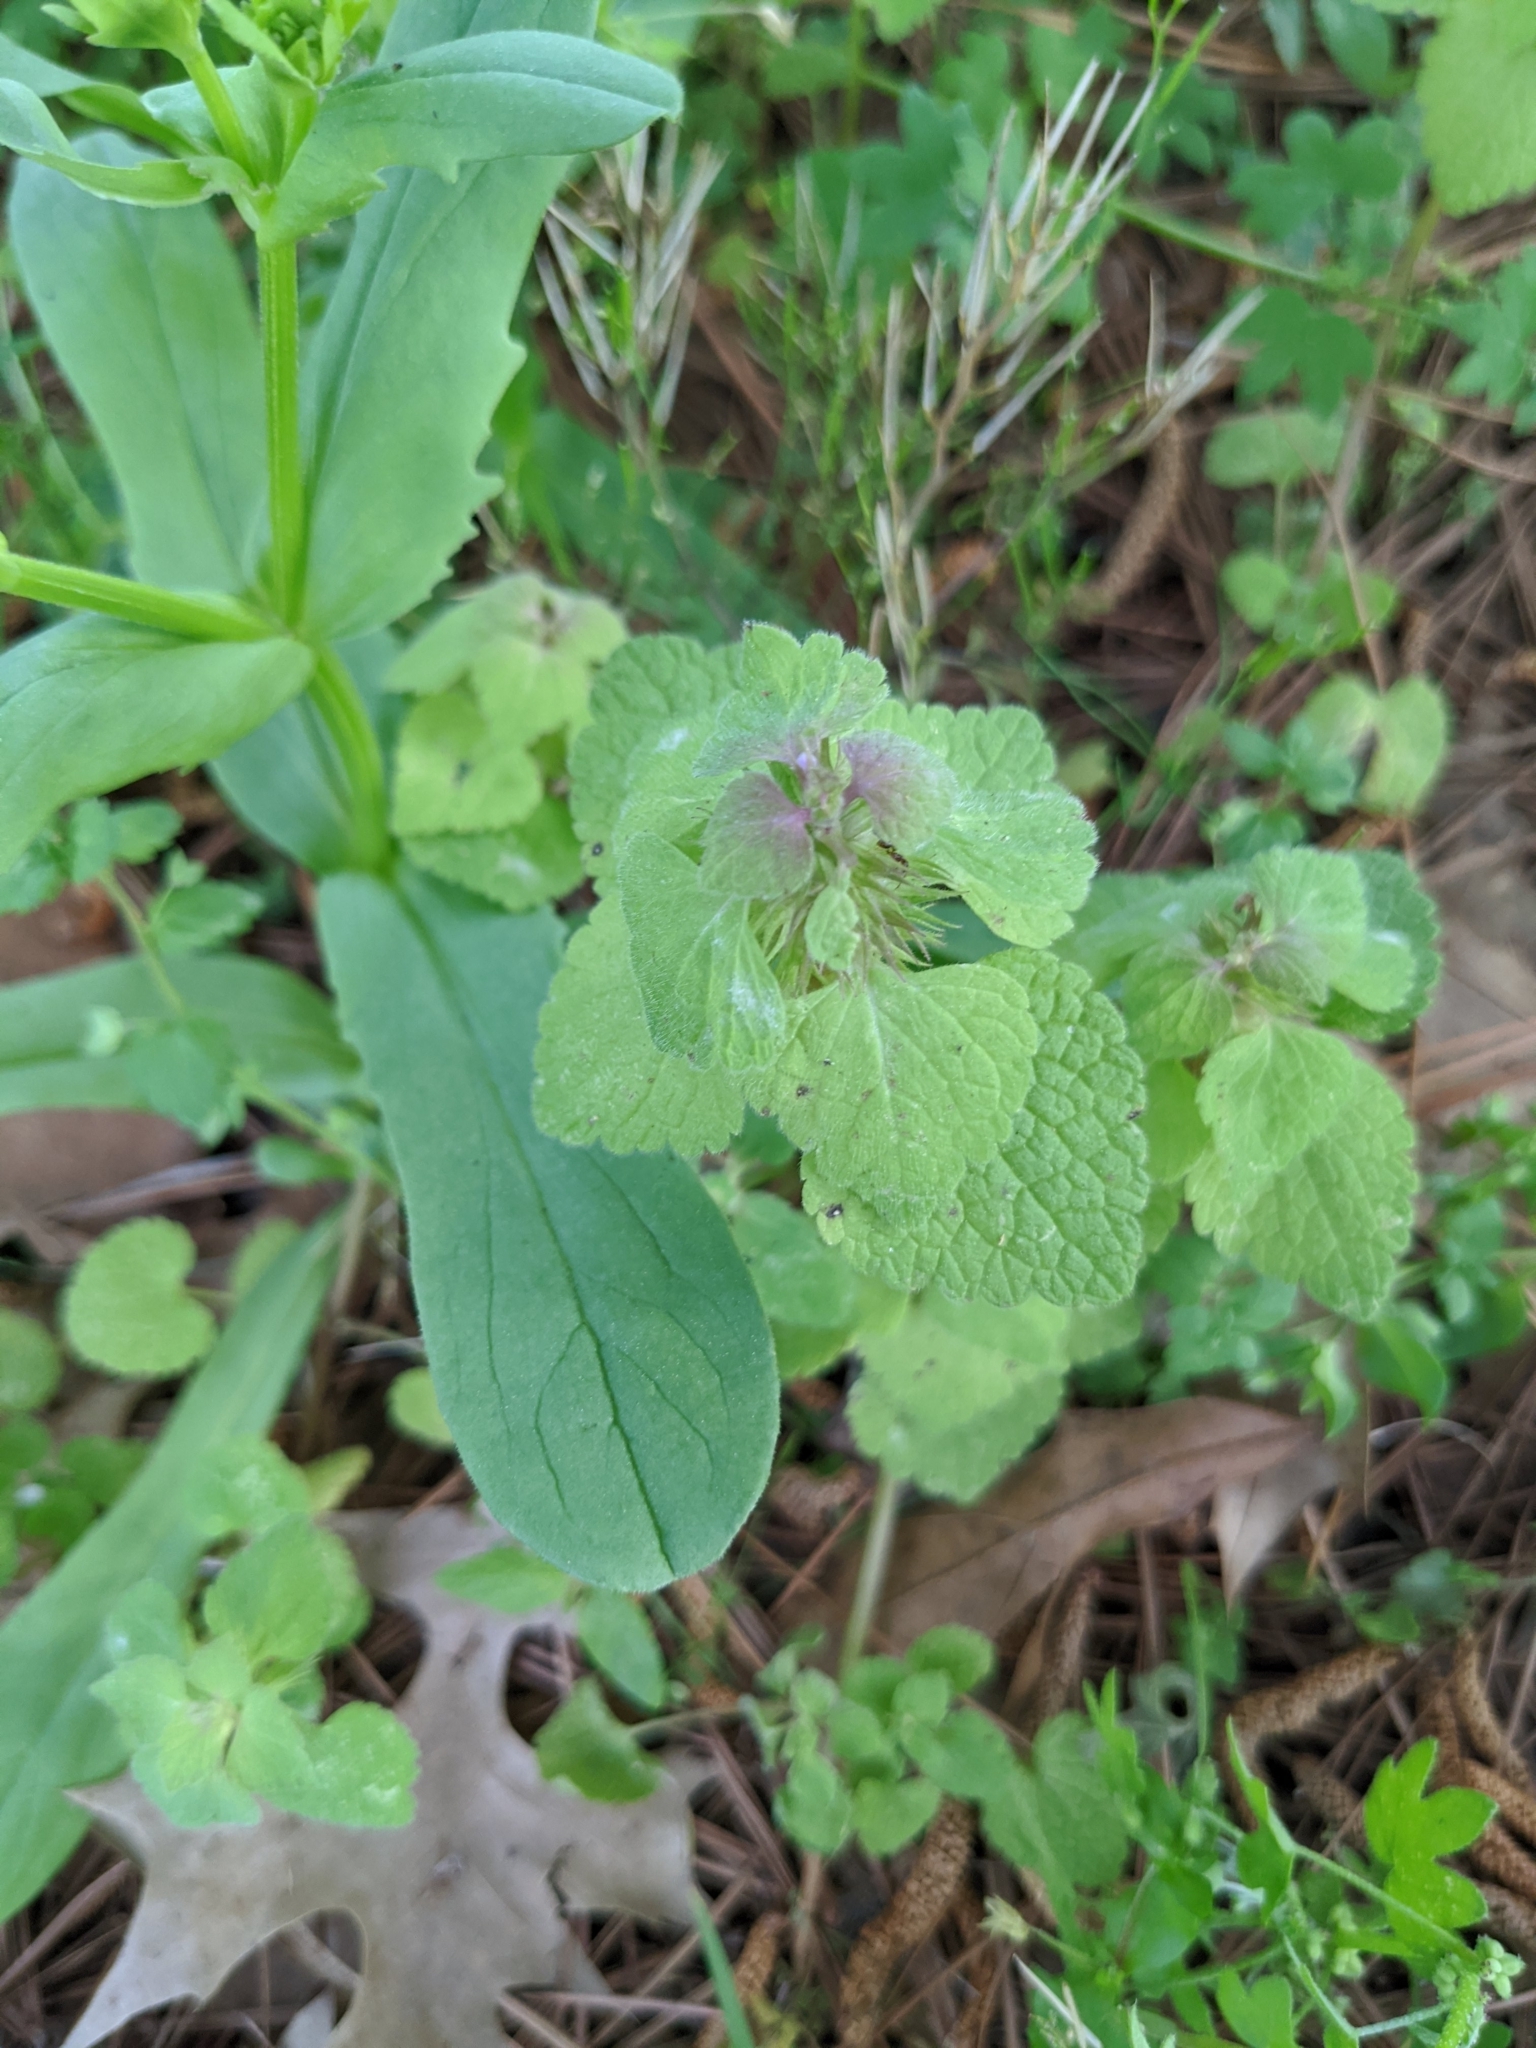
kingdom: Plantae
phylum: Tracheophyta
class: Magnoliopsida
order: Lamiales
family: Lamiaceae
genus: Lamium
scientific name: Lamium purpureum
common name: Red dead-nettle
